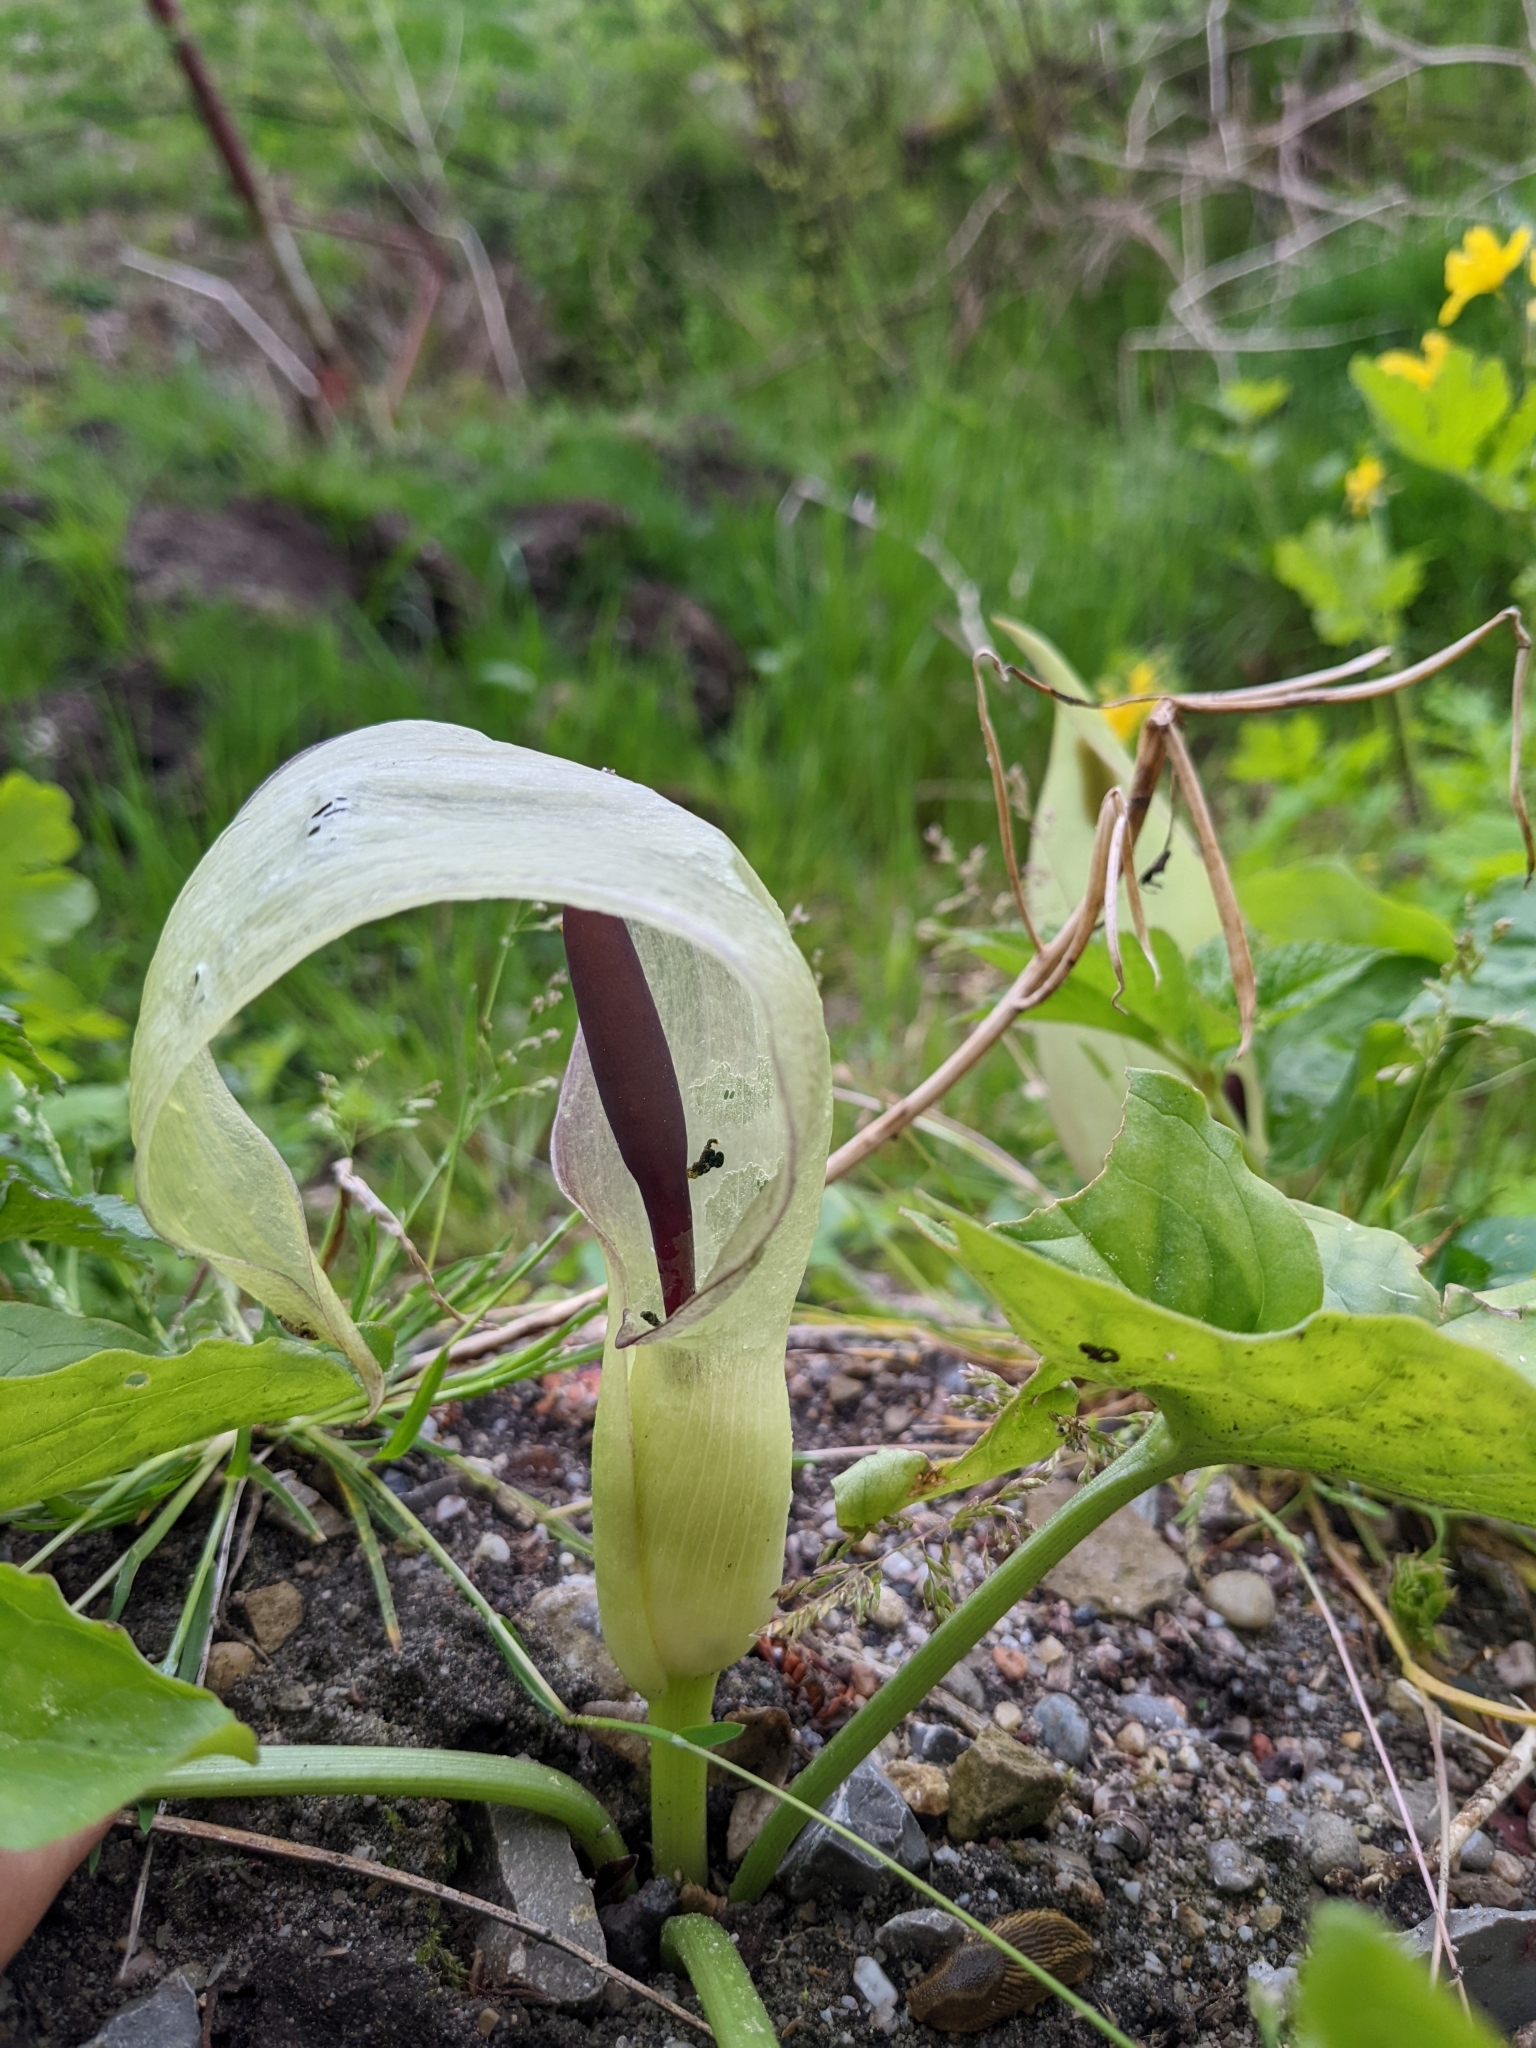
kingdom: Plantae
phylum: Tracheophyta
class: Liliopsida
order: Alismatales
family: Araceae
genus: Arum
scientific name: Arum maculatum
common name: Lords-and-ladies
